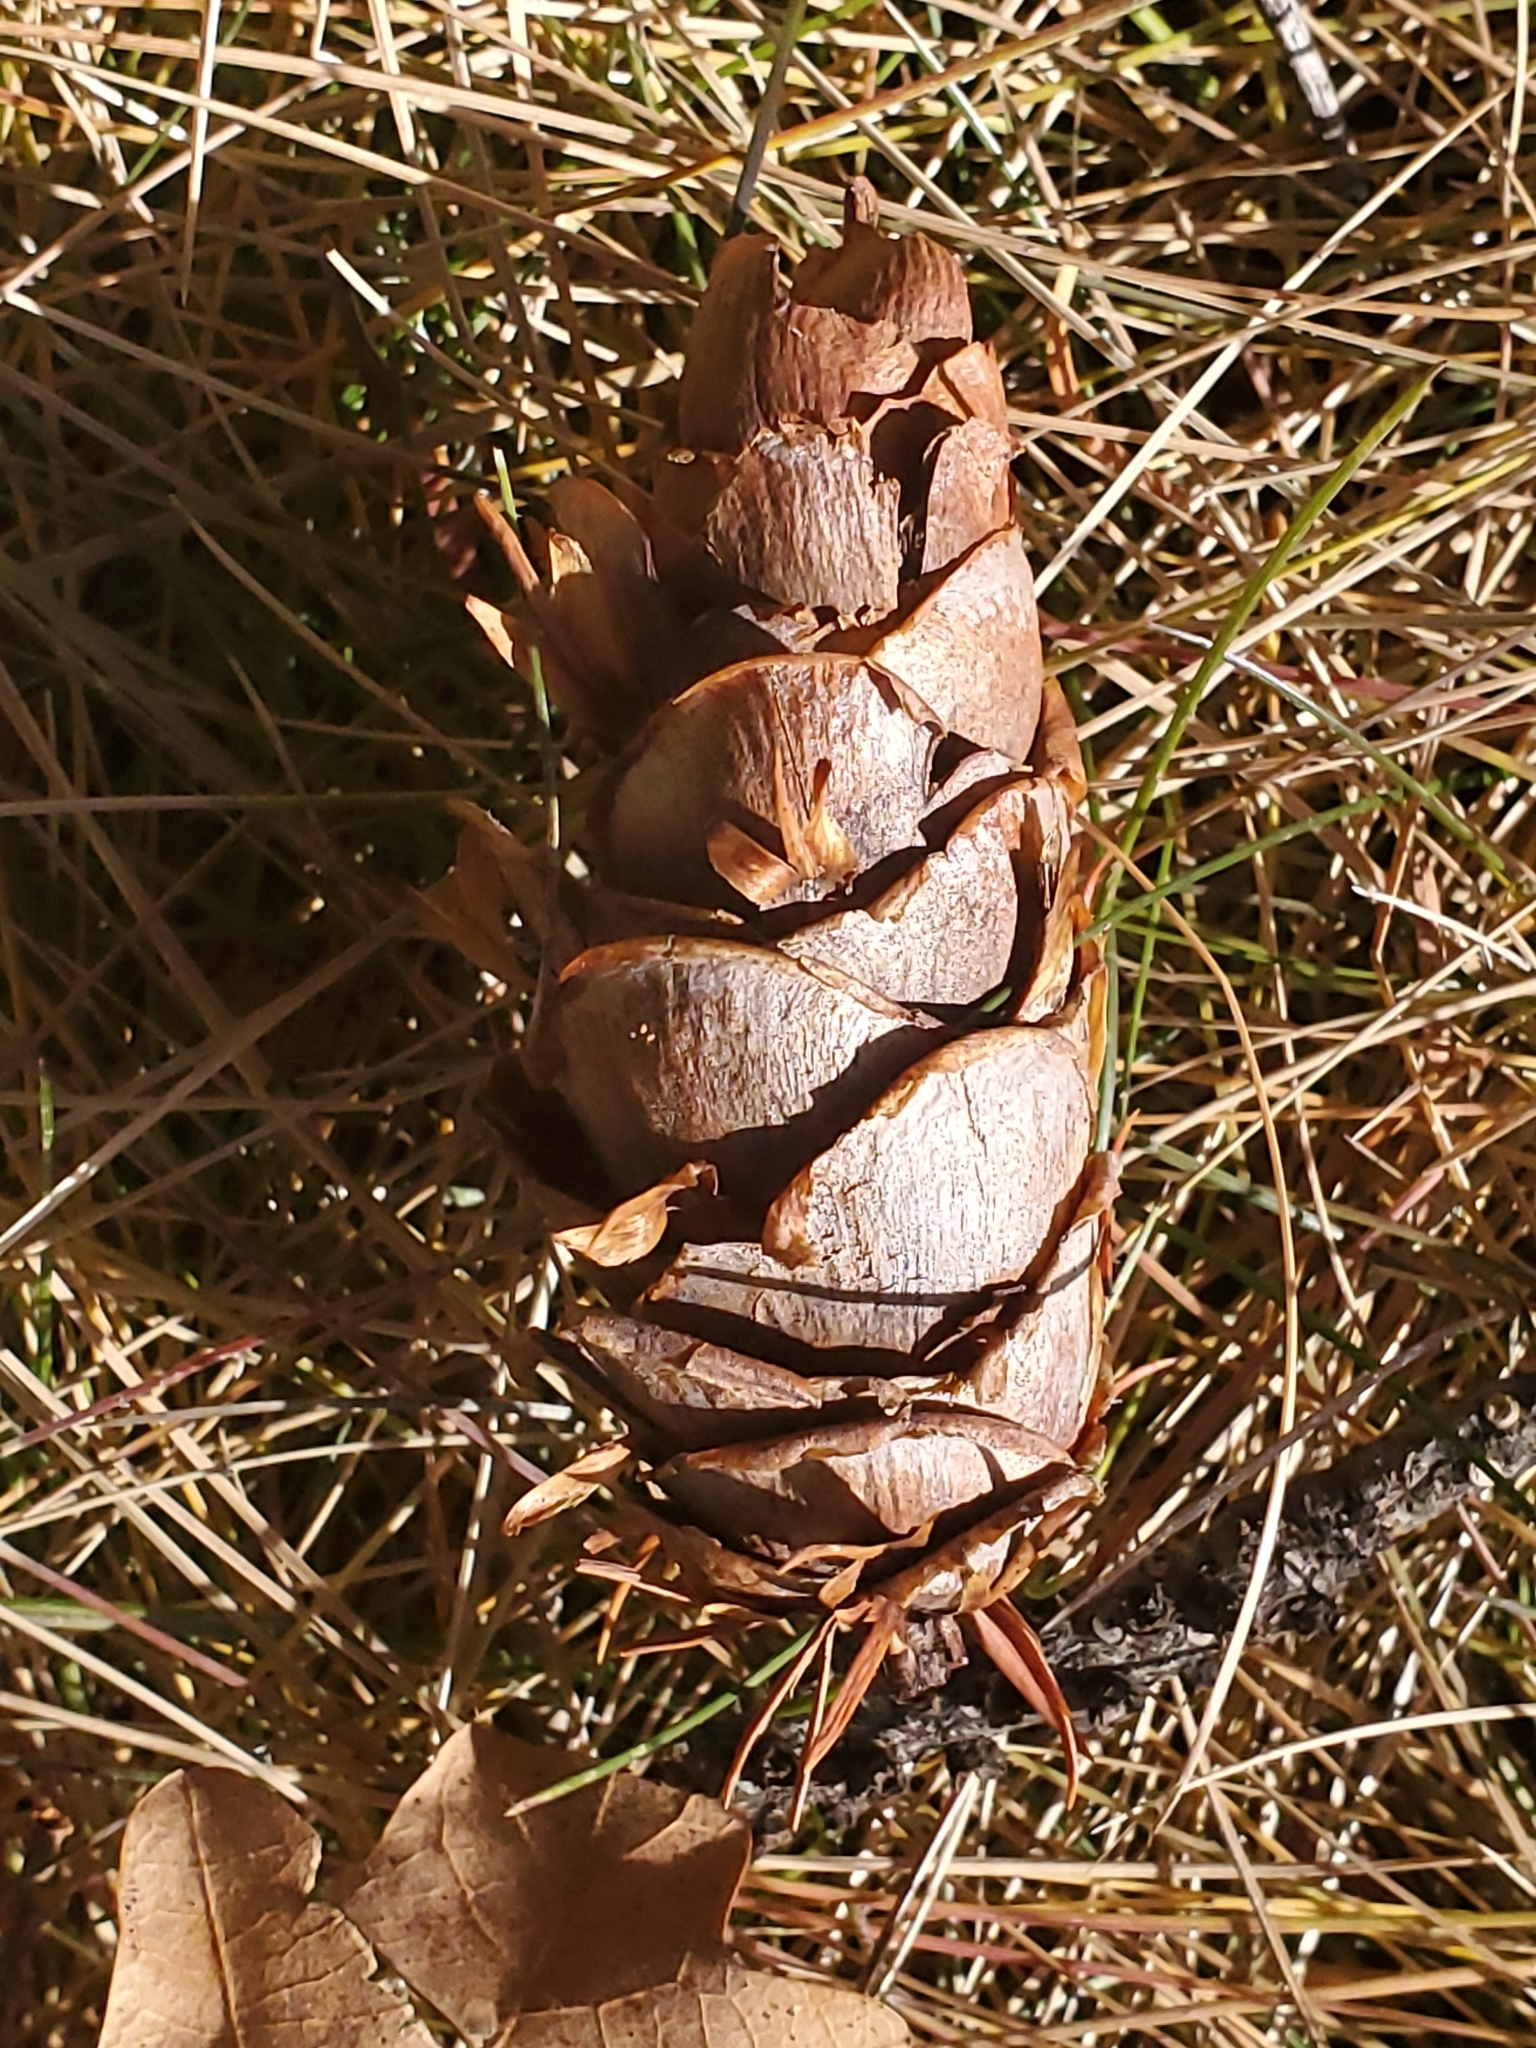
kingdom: Plantae
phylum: Tracheophyta
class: Pinopsida
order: Pinales
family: Pinaceae
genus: Pseudotsuga
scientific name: Pseudotsuga menziesii
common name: Douglas fir
